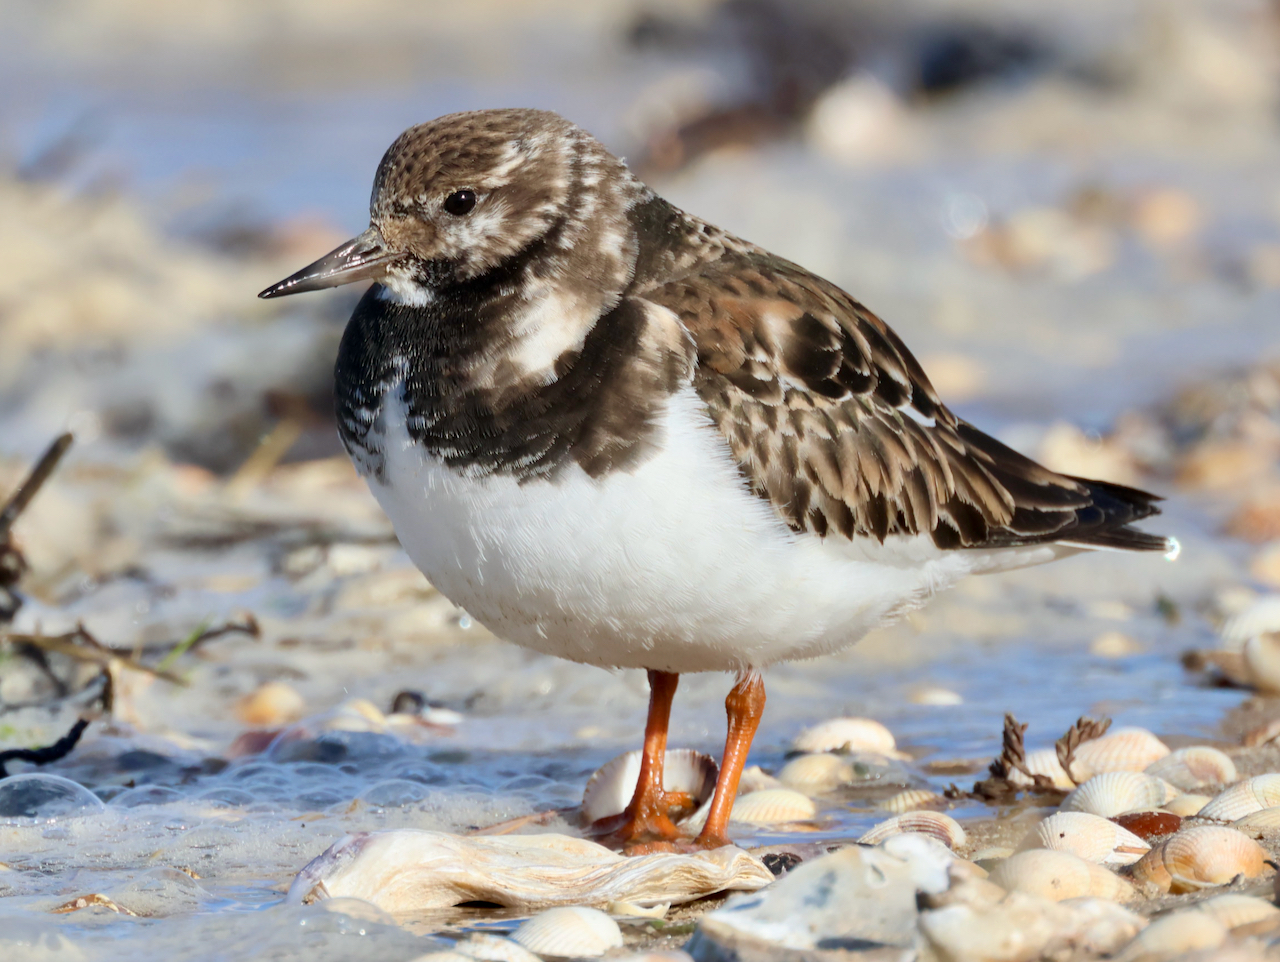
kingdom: Animalia
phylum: Chordata
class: Aves
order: Charadriiformes
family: Scolopacidae
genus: Arenaria
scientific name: Arenaria interpres
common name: Ruddy turnstone
